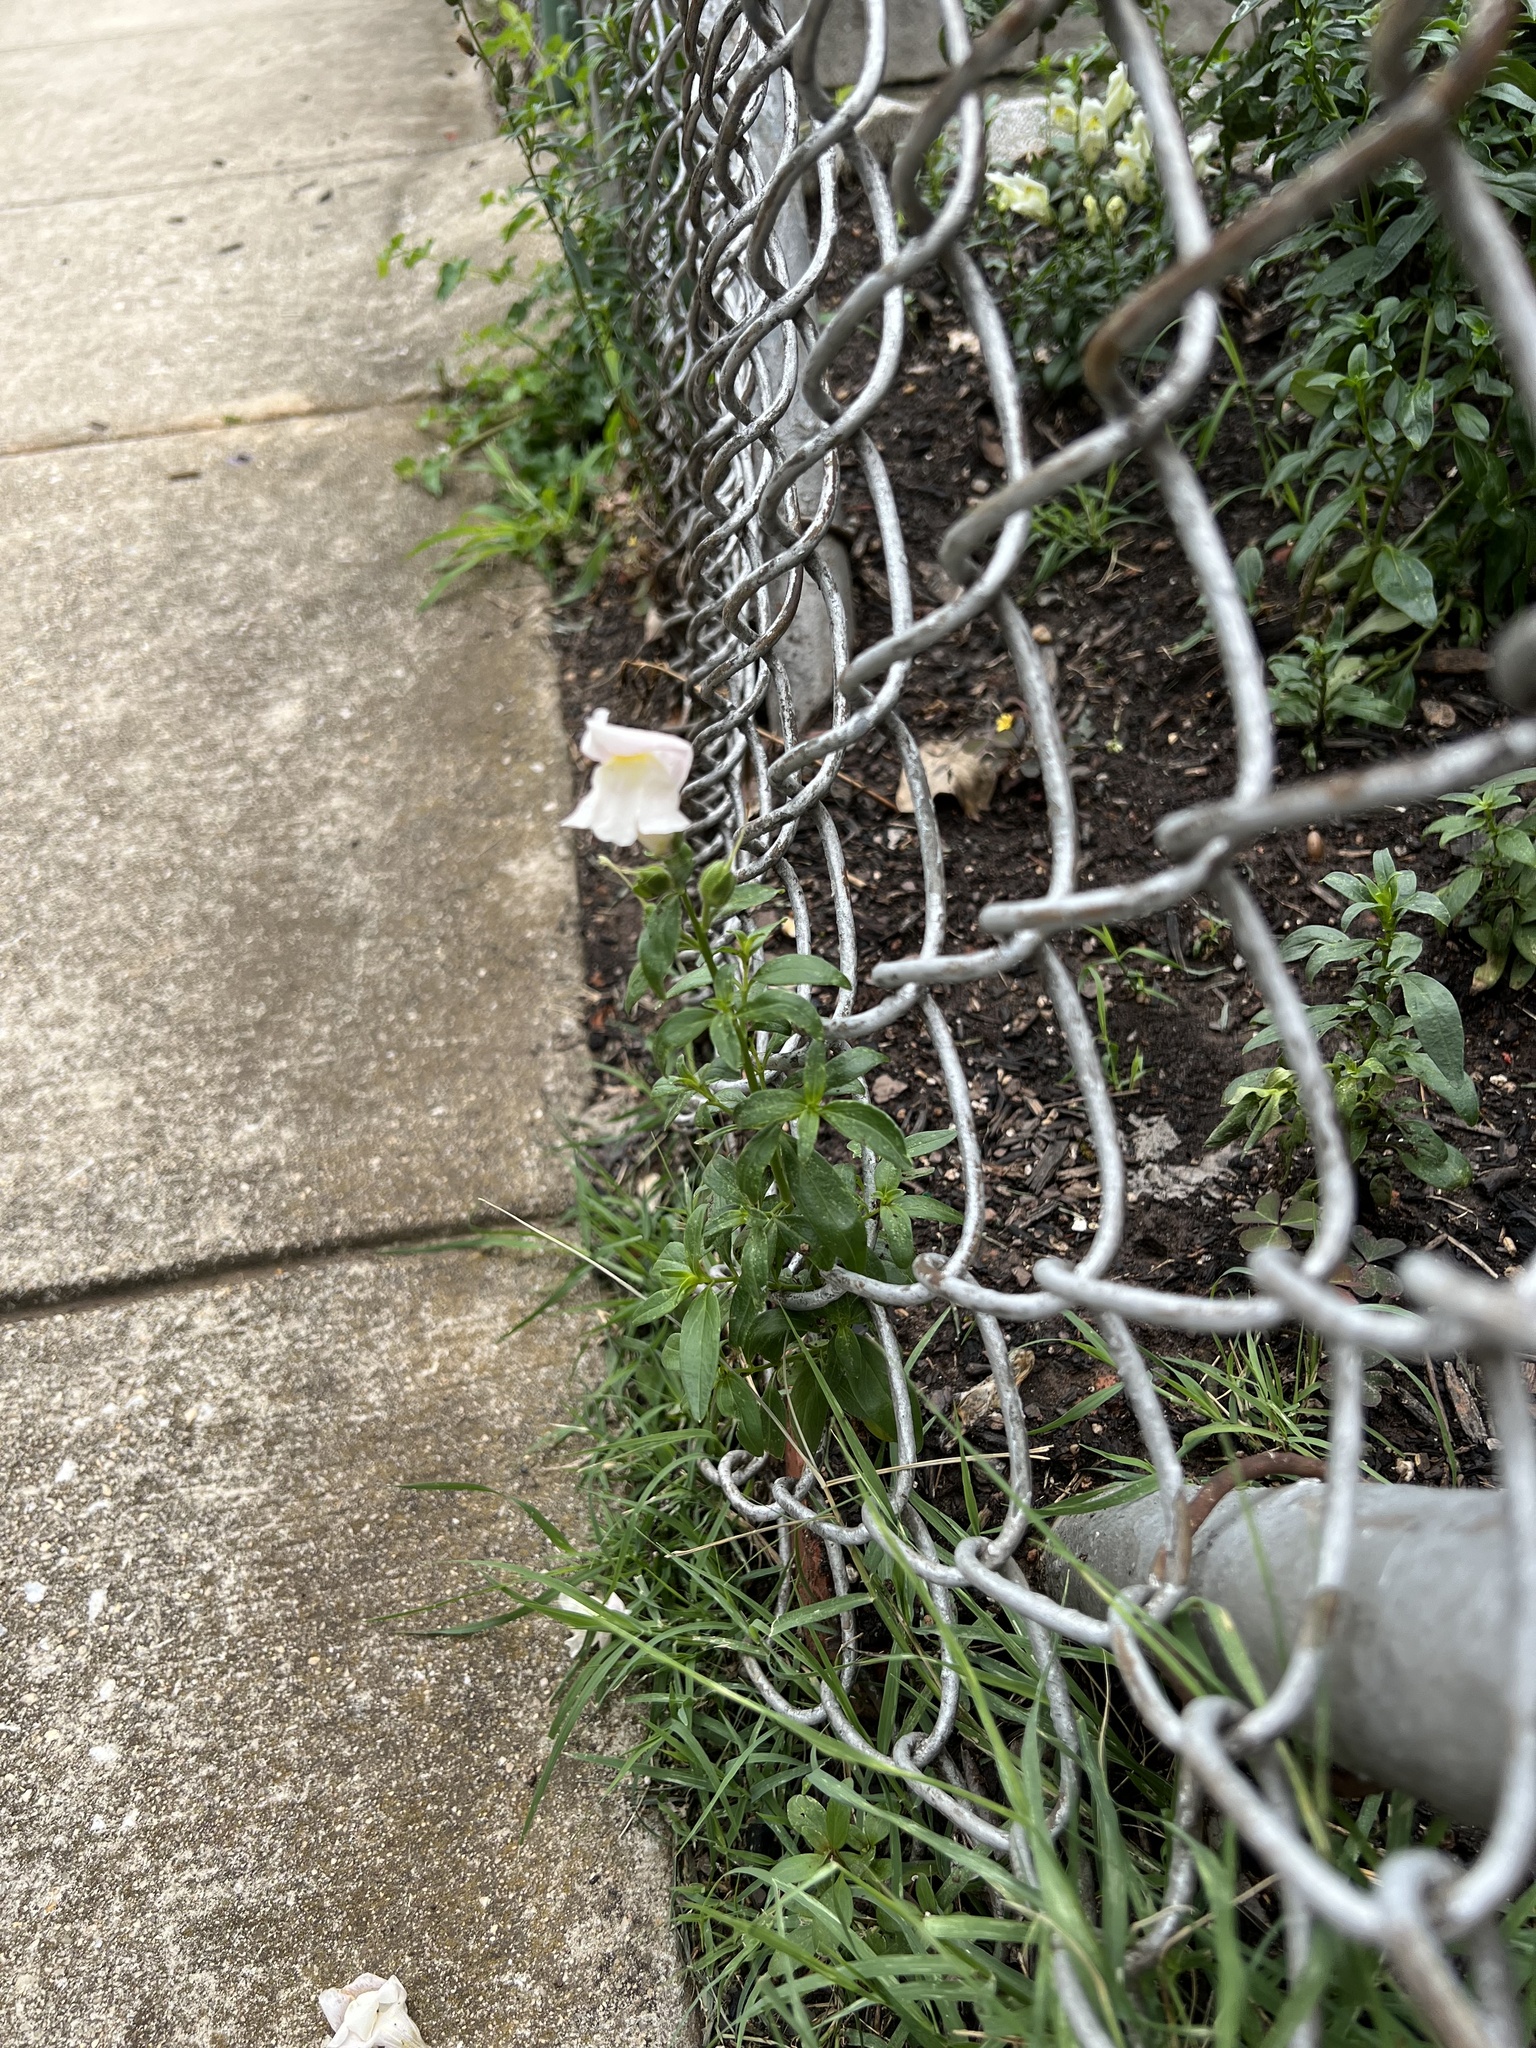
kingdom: Plantae
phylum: Tracheophyta
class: Magnoliopsida
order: Lamiales
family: Plantaginaceae
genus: Antirrhinum
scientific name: Antirrhinum majus
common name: Snapdragon
